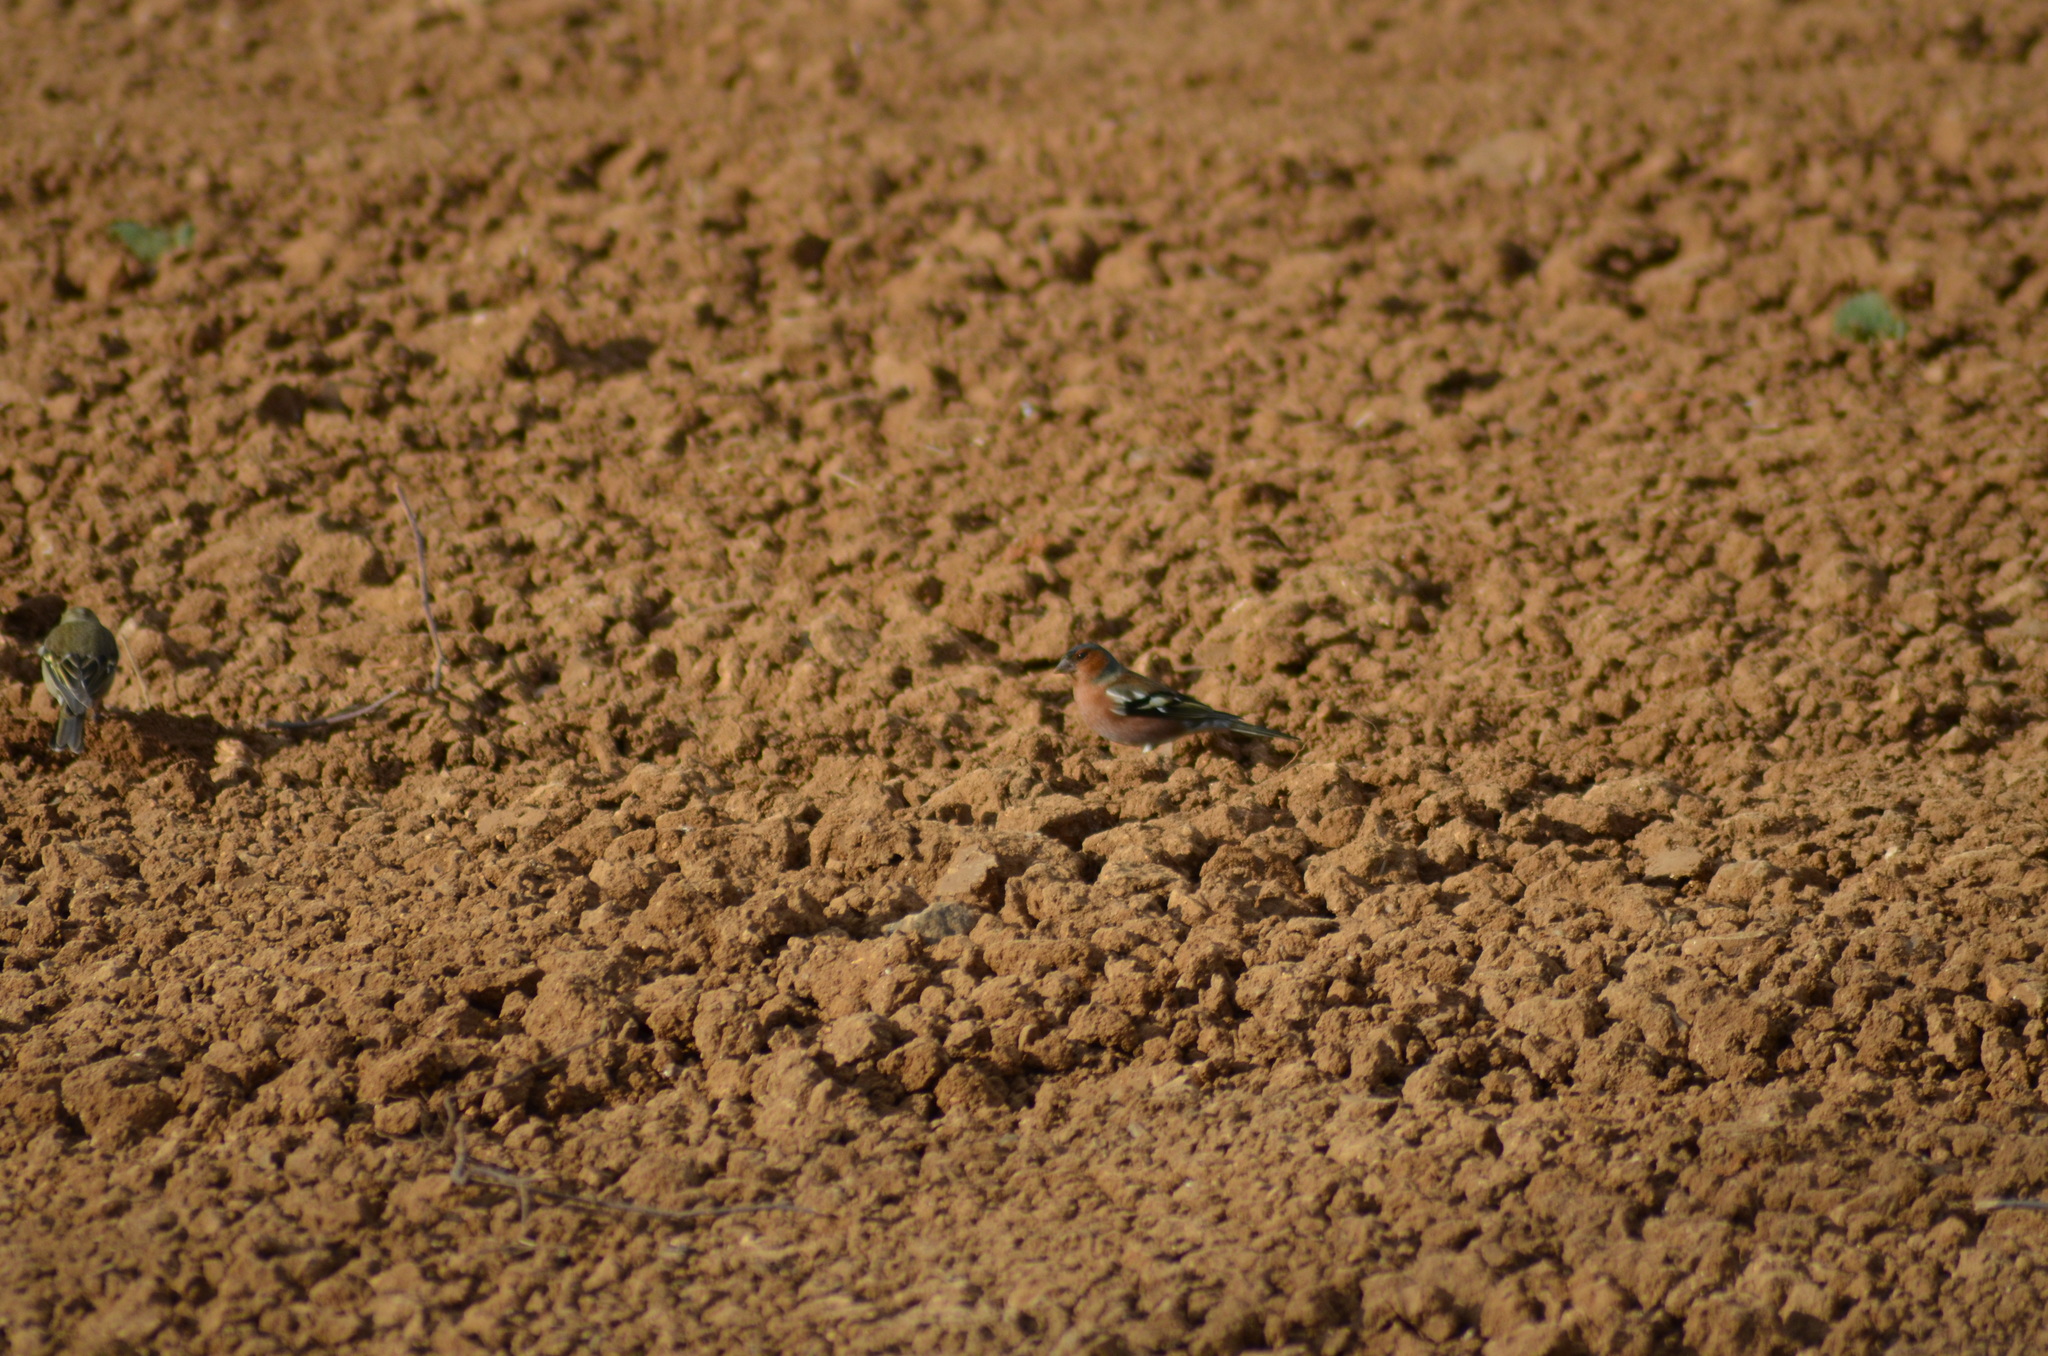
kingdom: Animalia
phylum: Chordata
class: Aves
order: Passeriformes
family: Fringillidae
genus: Fringilla
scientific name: Fringilla coelebs
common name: Common chaffinch
